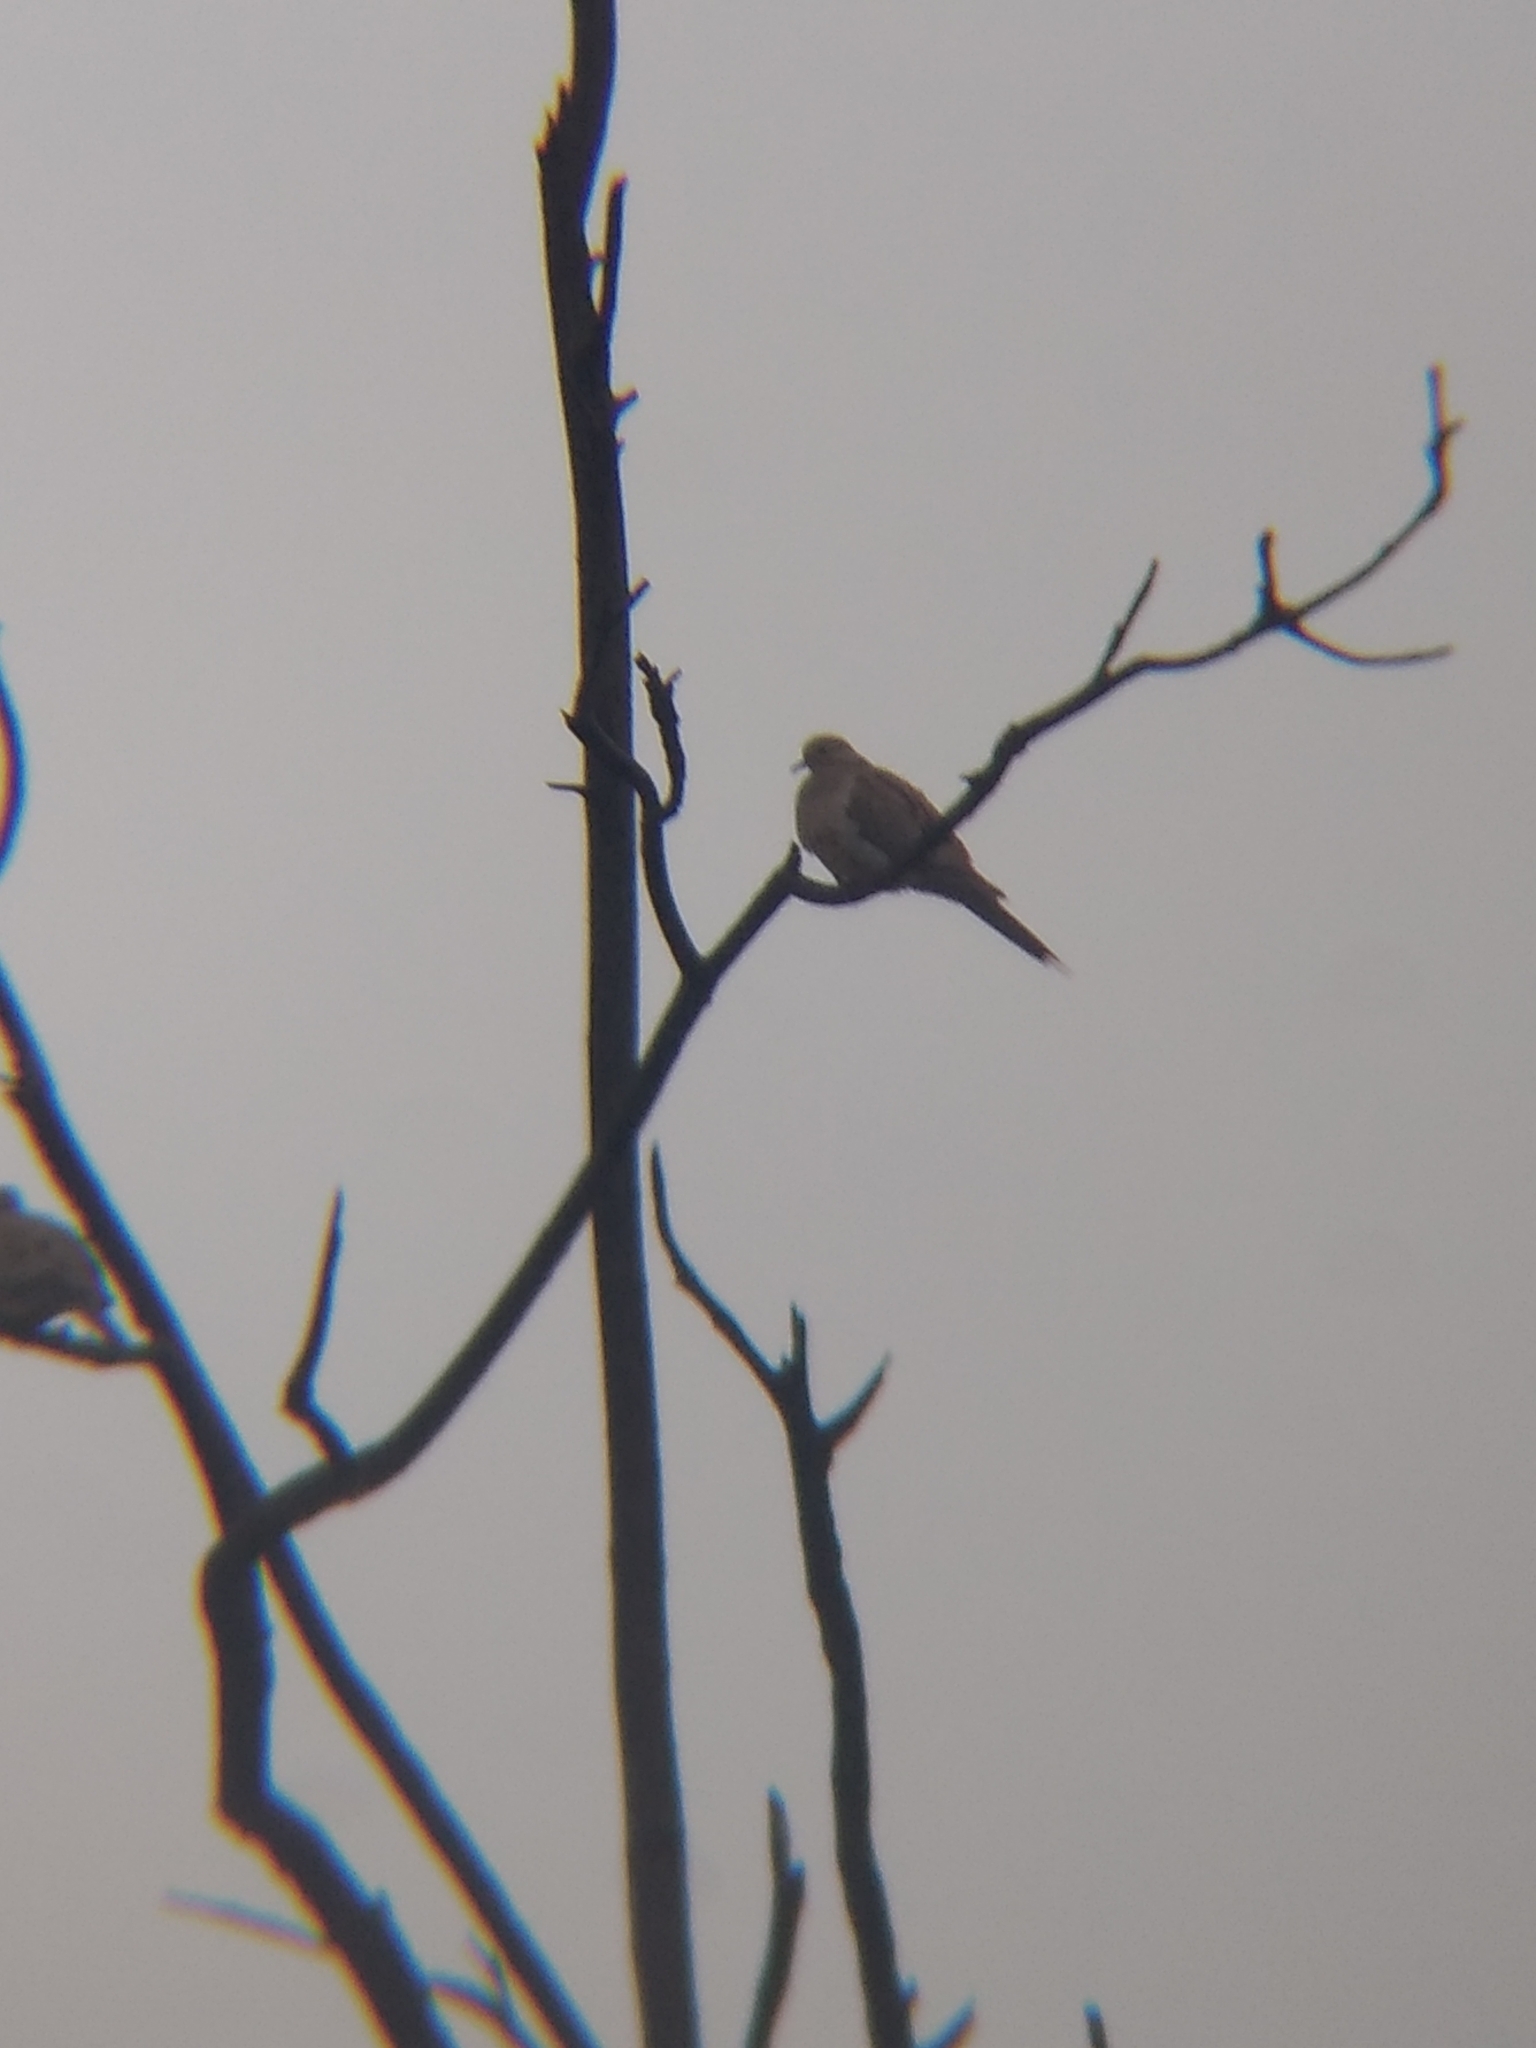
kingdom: Animalia
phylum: Chordata
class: Aves
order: Columbiformes
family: Columbidae
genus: Zenaida
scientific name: Zenaida macroura
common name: Mourning dove
